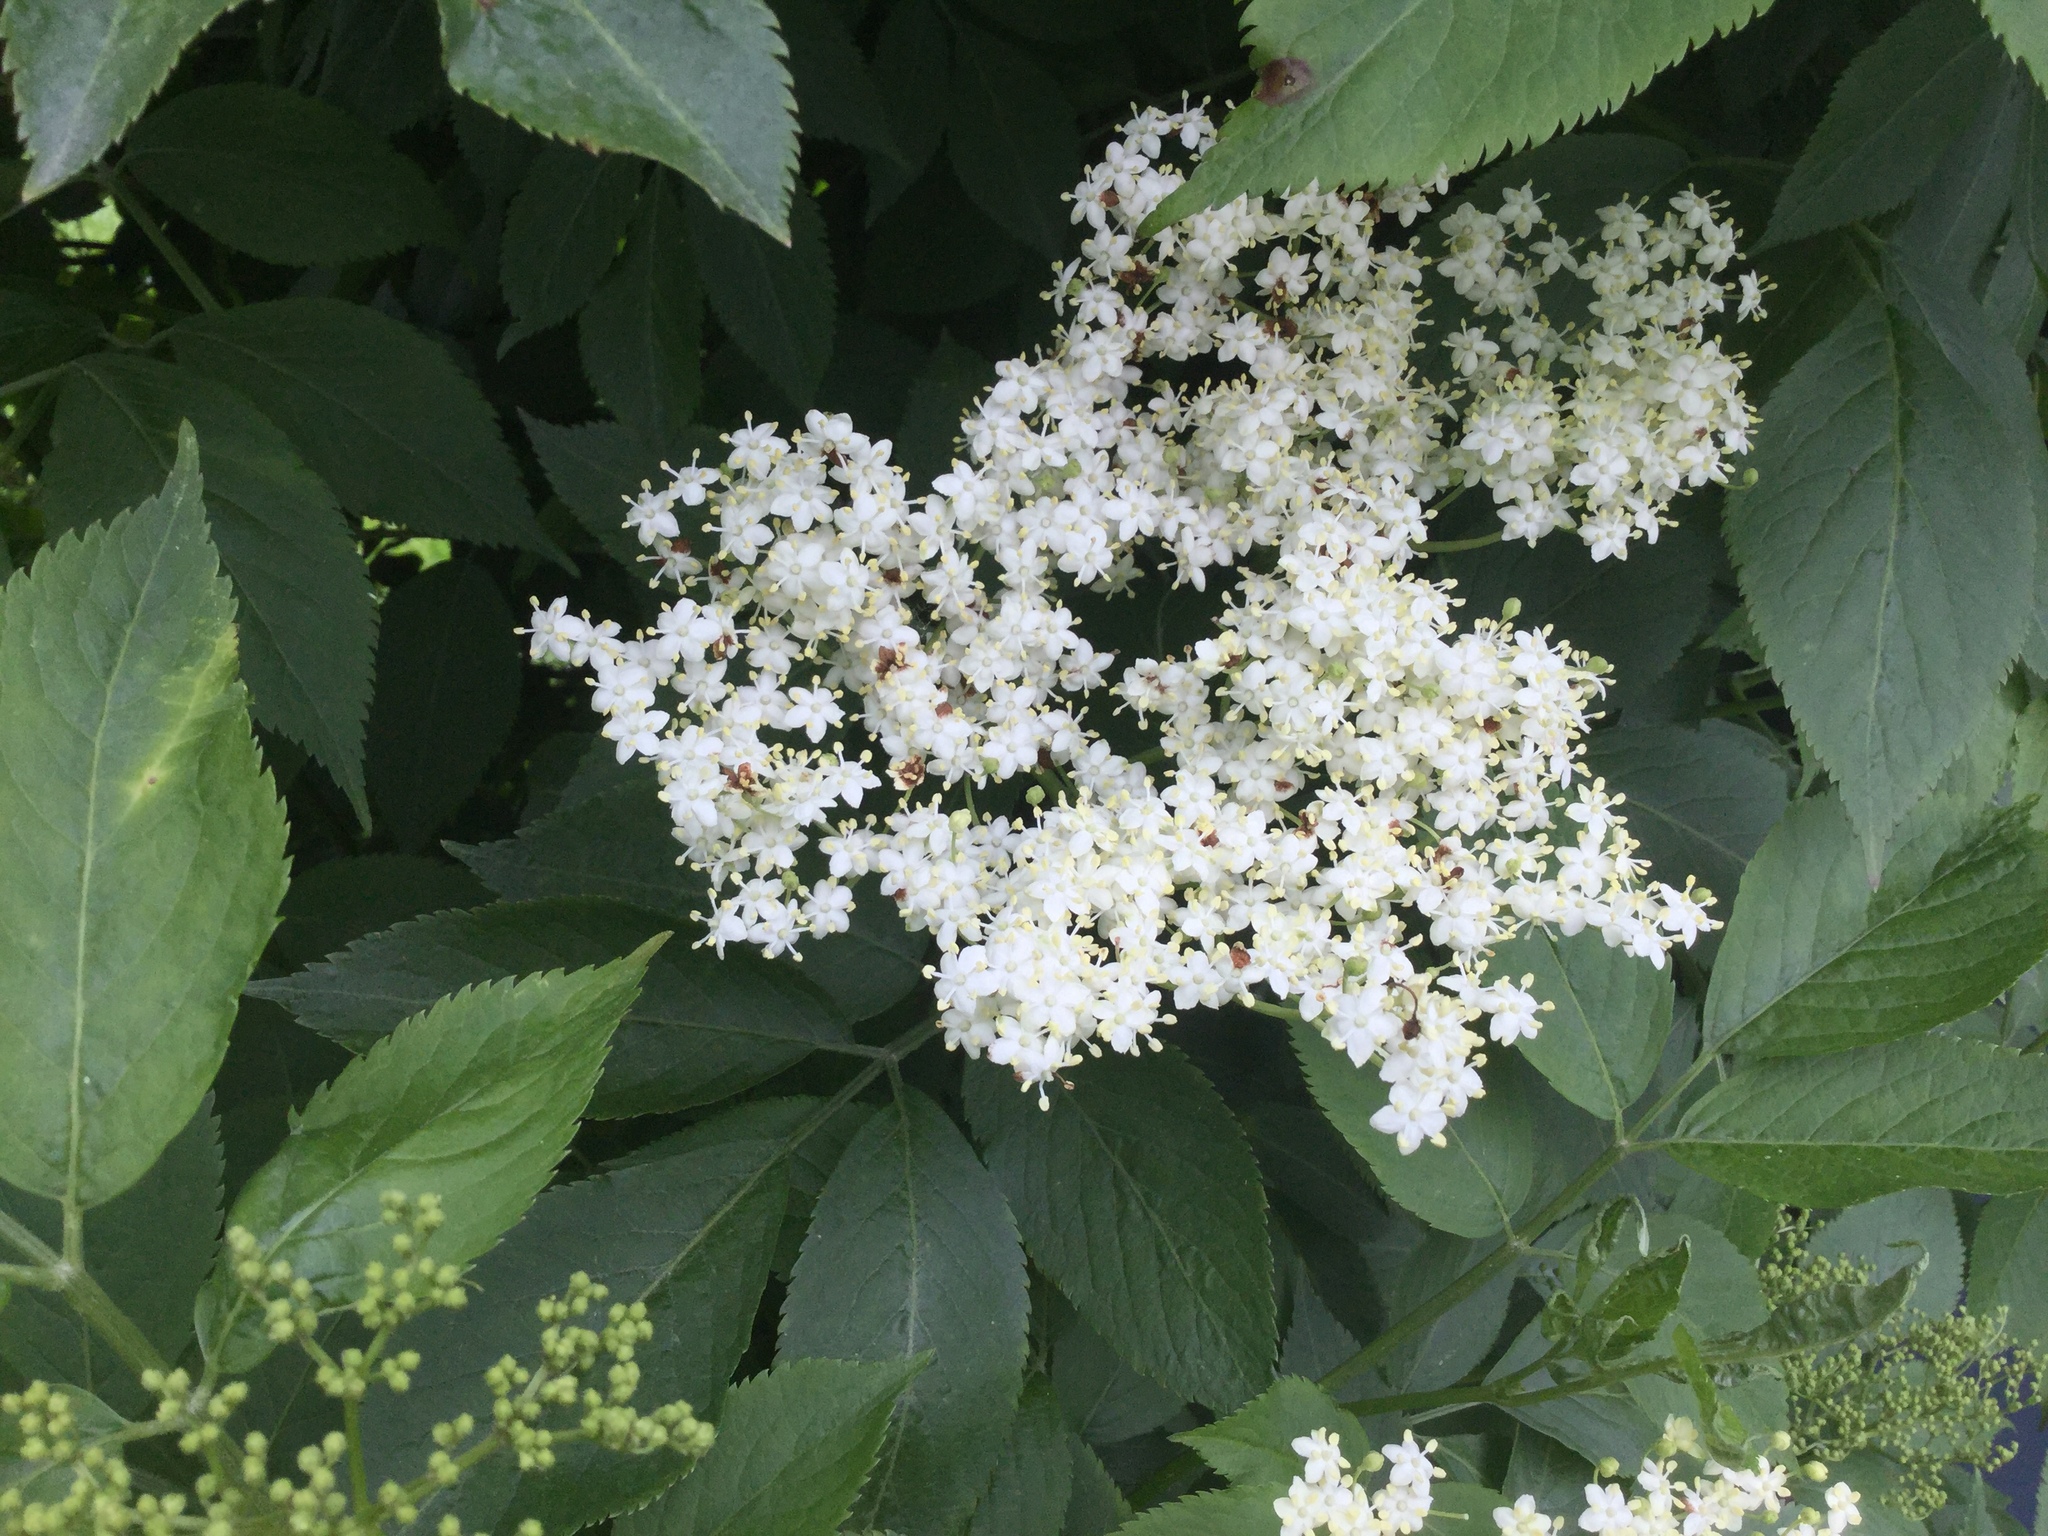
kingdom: Plantae
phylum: Tracheophyta
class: Magnoliopsida
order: Dipsacales
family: Viburnaceae
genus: Sambucus
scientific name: Sambucus nigra
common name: Elder
